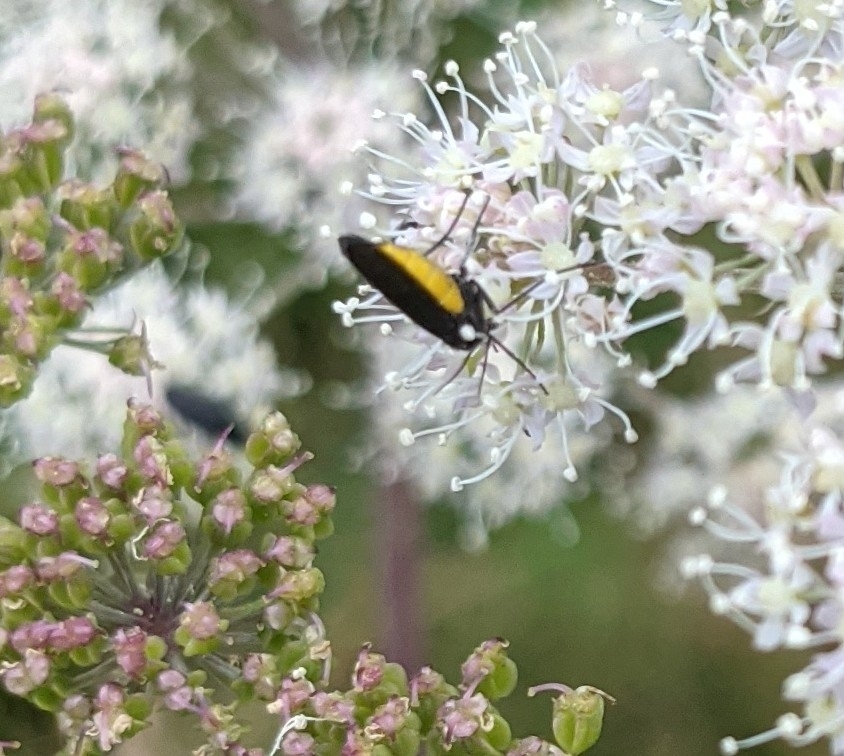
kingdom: Animalia
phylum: Arthropoda
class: Insecta
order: Diptera
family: Sciaridae
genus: Sciara
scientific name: Sciara hemerobioides
